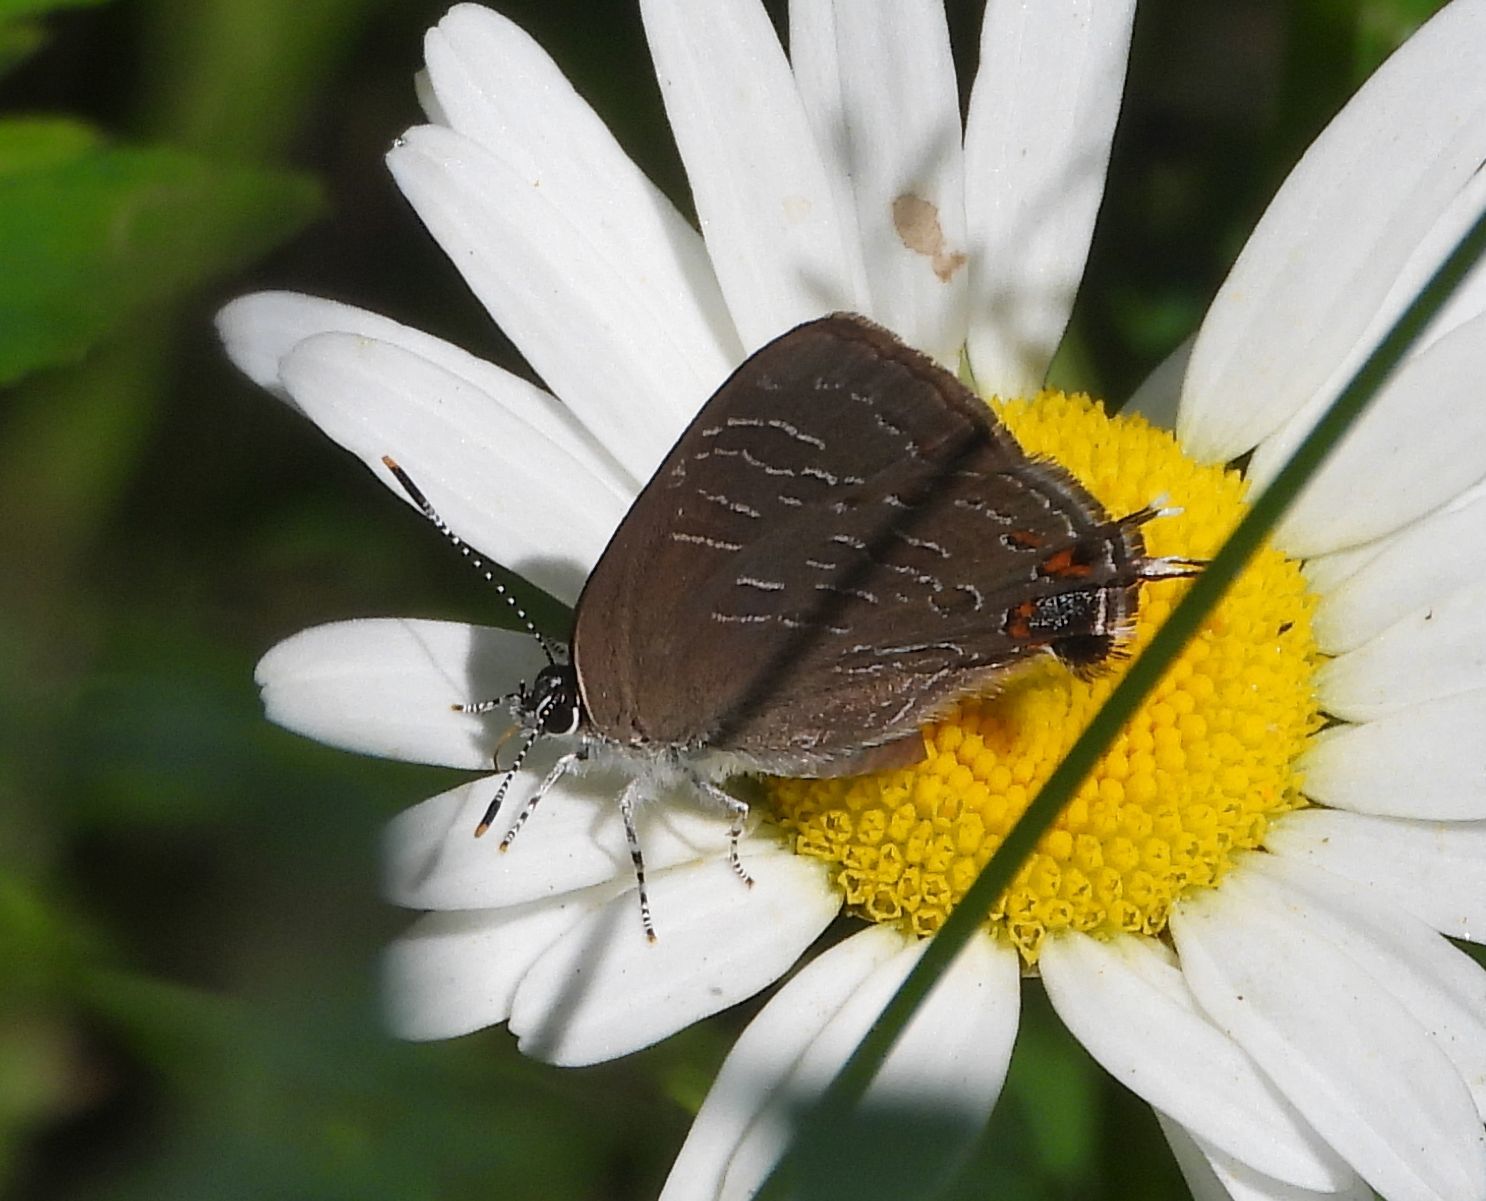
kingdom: Animalia
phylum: Arthropoda
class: Insecta
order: Lepidoptera
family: Lycaenidae
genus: Satyrium
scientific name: Satyrium liparops
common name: Striped hairstreak
